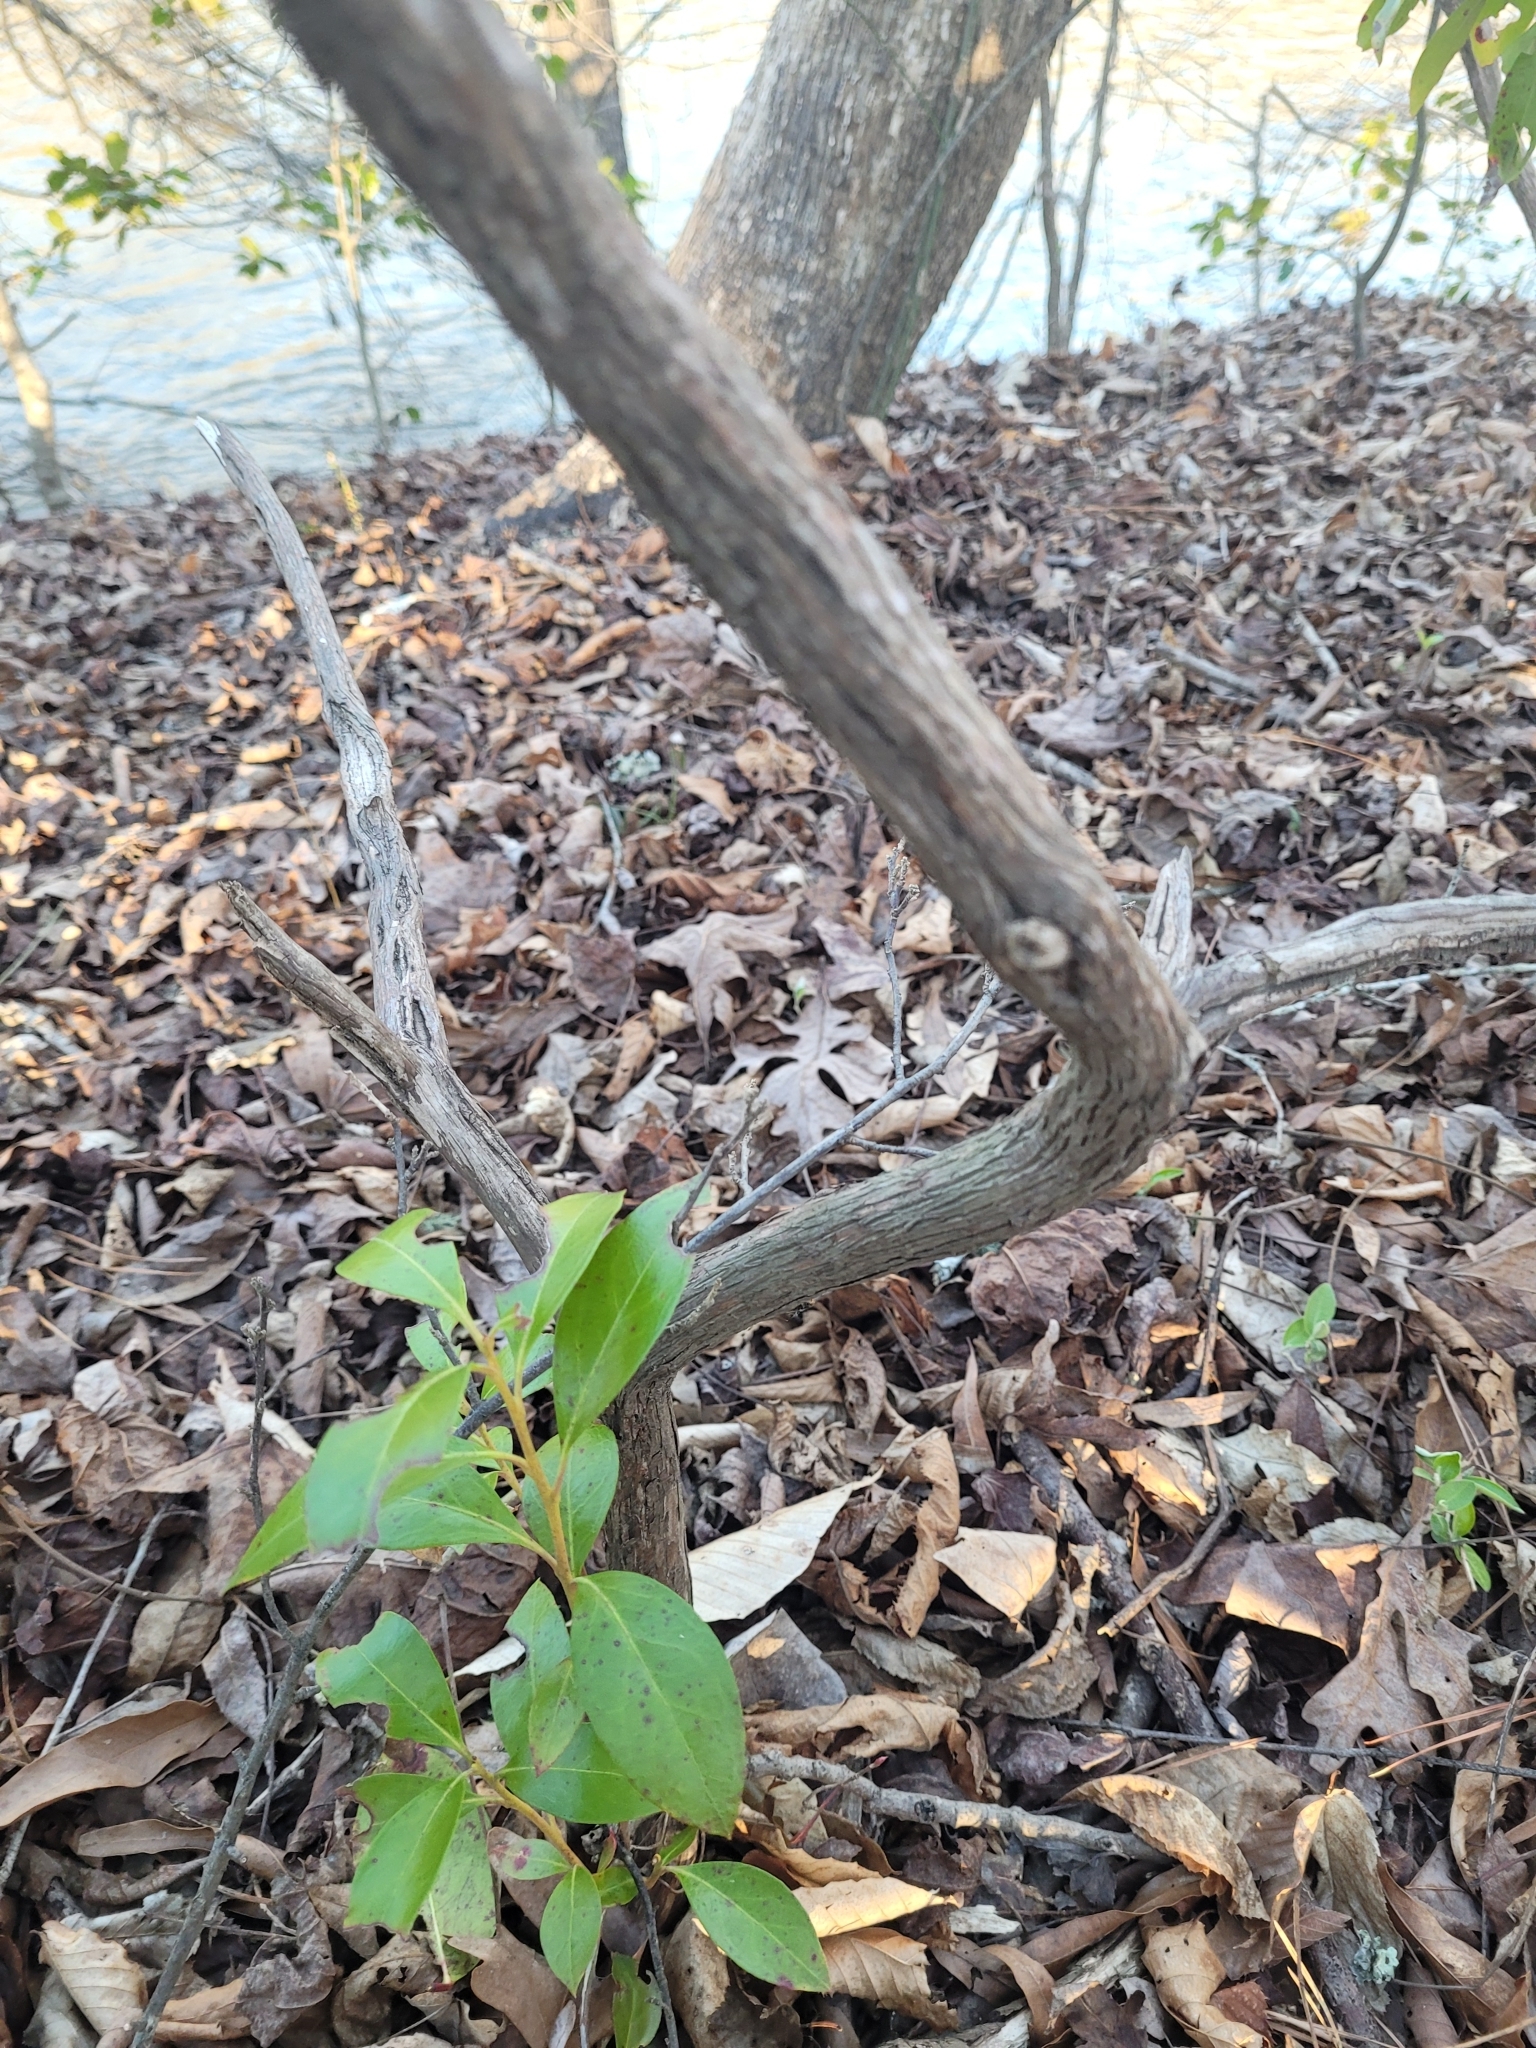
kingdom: Plantae
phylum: Tracheophyta
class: Magnoliopsida
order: Ericales
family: Ericaceae
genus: Kalmia
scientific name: Kalmia latifolia
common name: Mountain-laurel
